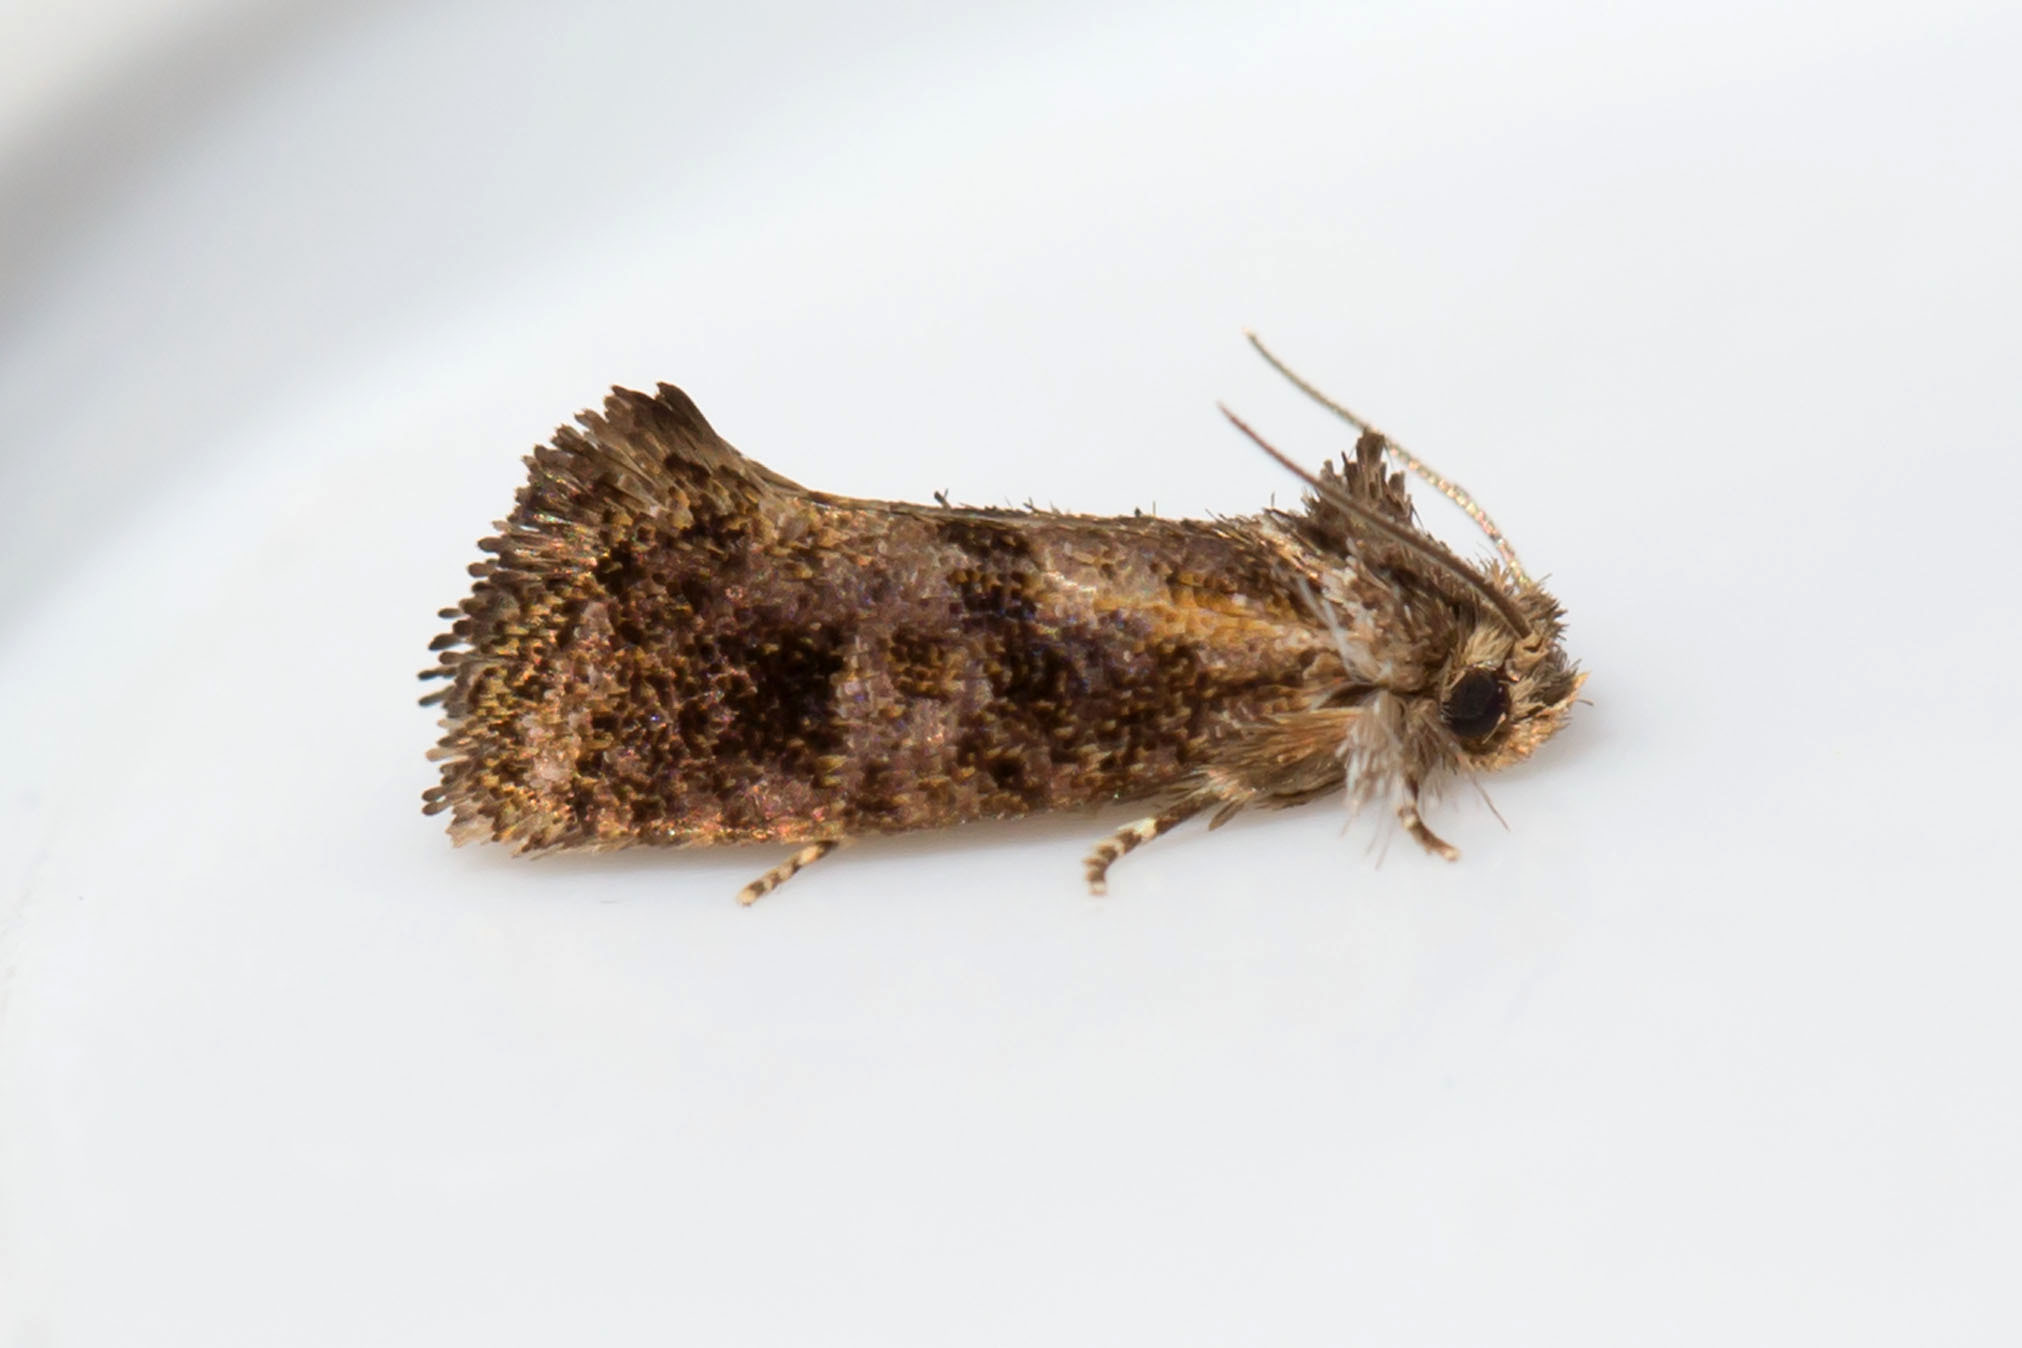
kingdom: Animalia
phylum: Arthropoda
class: Insecta
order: Lepidoptera
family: Tineidae
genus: Acrolophus
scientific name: Acrolophus panamae
